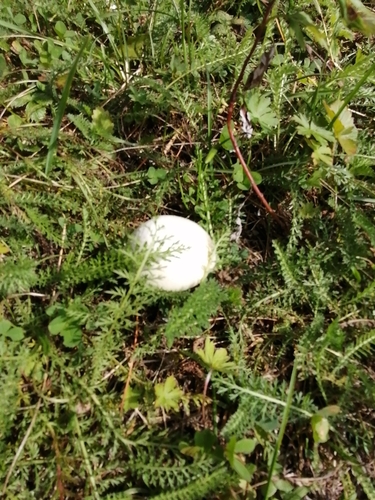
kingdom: Fungi
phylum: Basidiomycota
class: Agaricomycetes
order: Agaricales
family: Agaricaceae
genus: Agaricus
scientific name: Agaricus campestris
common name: Field mushroom
